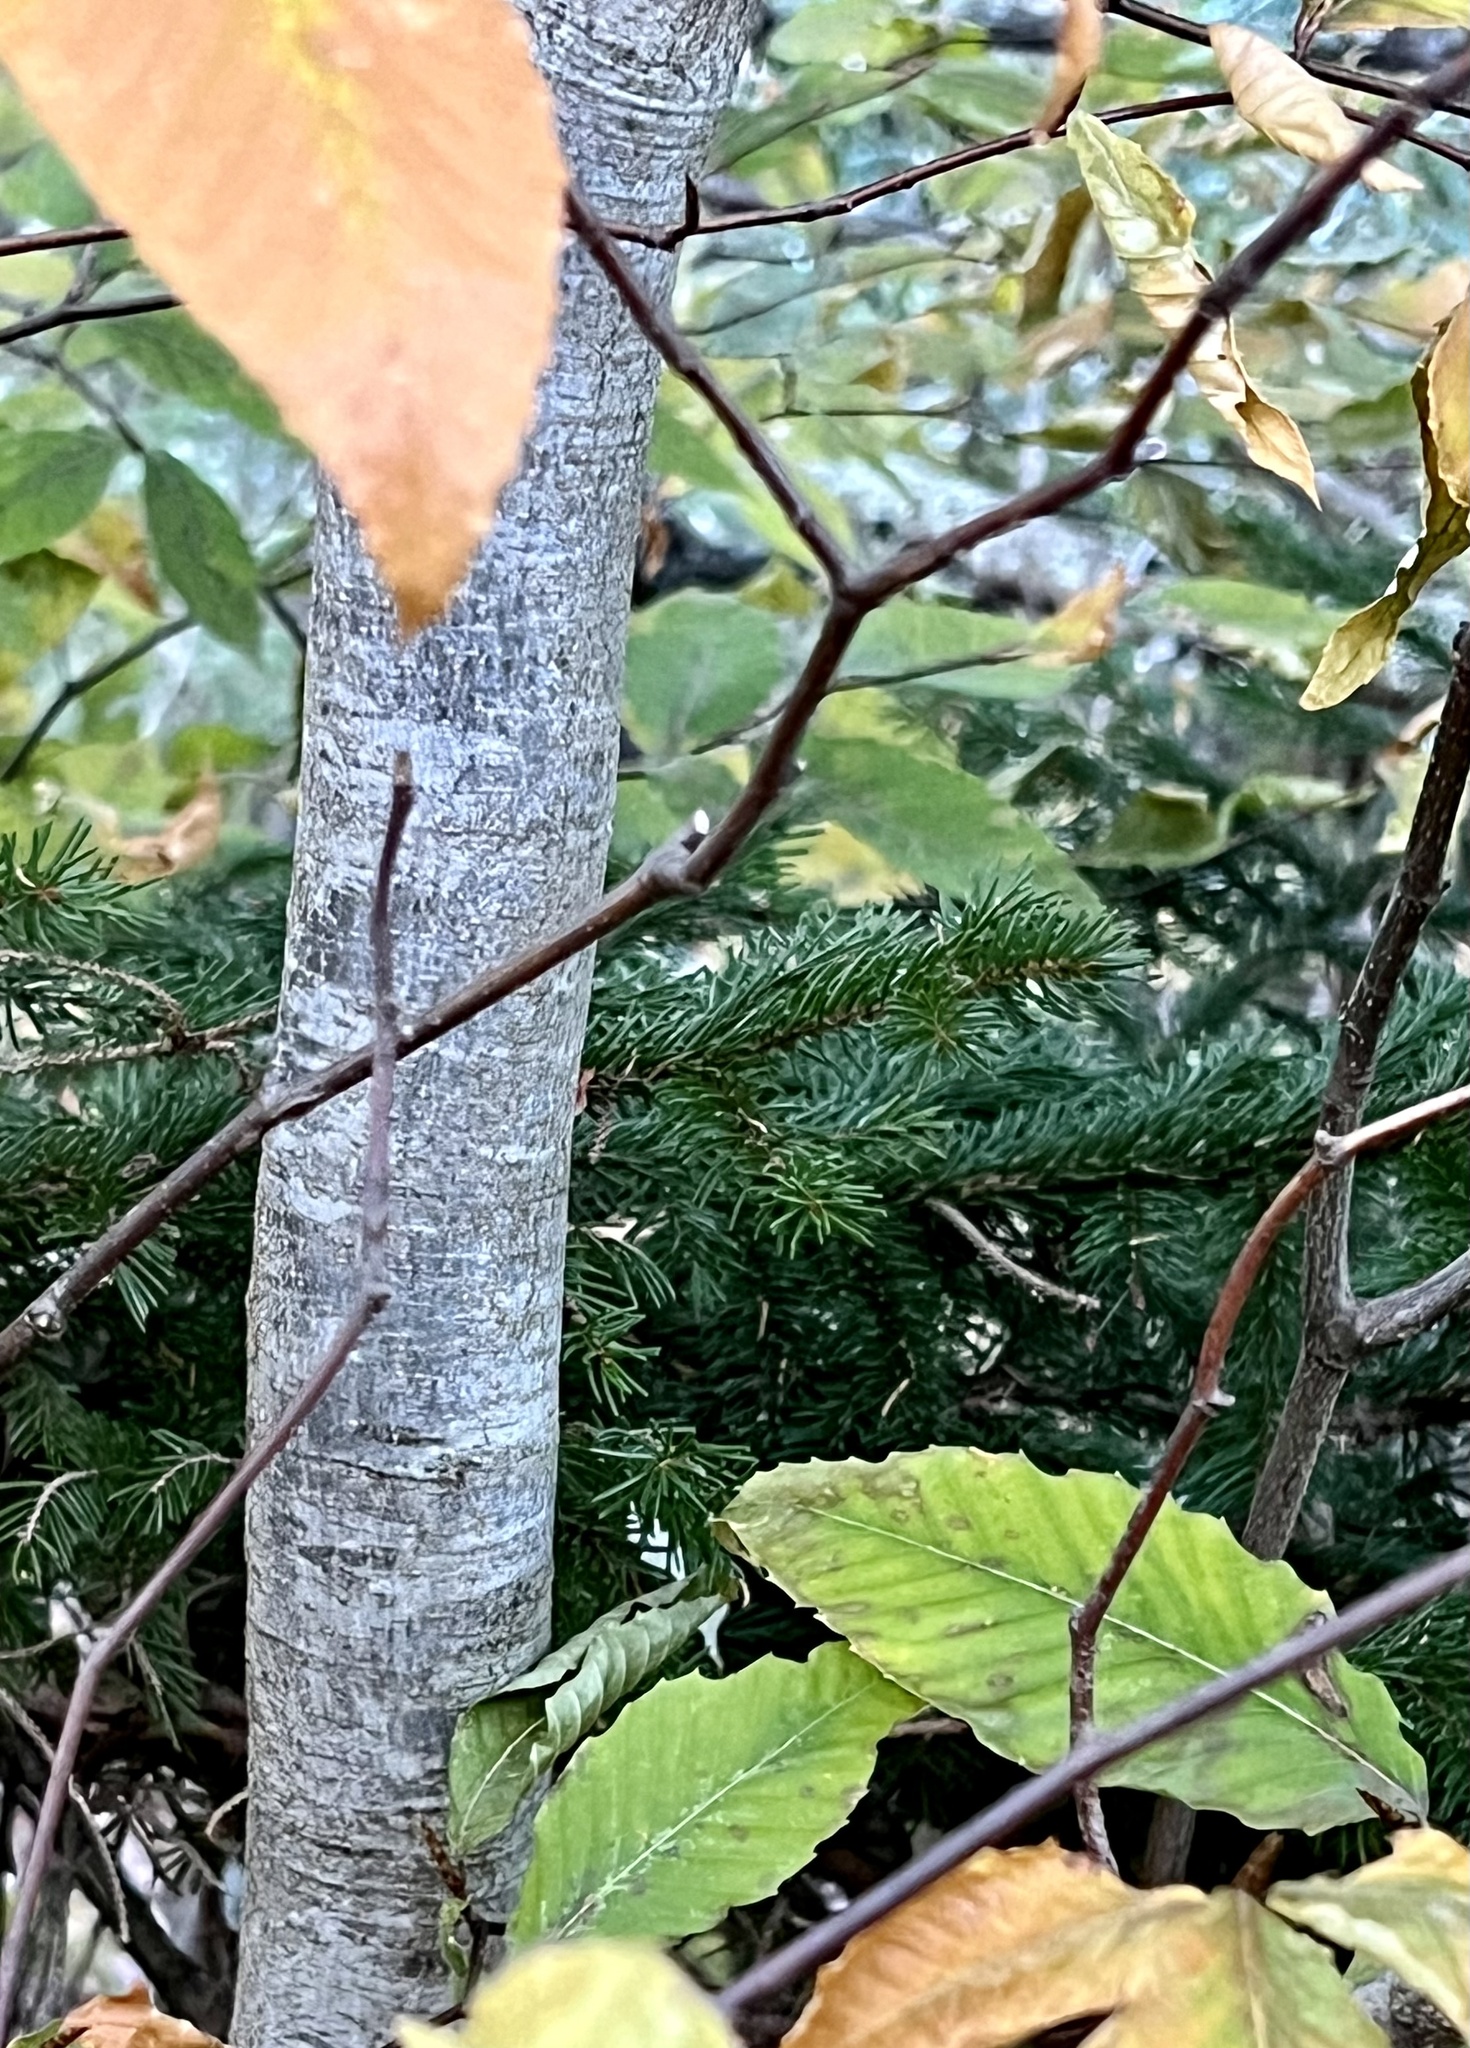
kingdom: Plantae
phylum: Tracheophyta
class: Magnoliopsida
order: Fagales
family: Fagaceae
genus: Fagus
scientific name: Fagus grandifolia
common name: American beech
